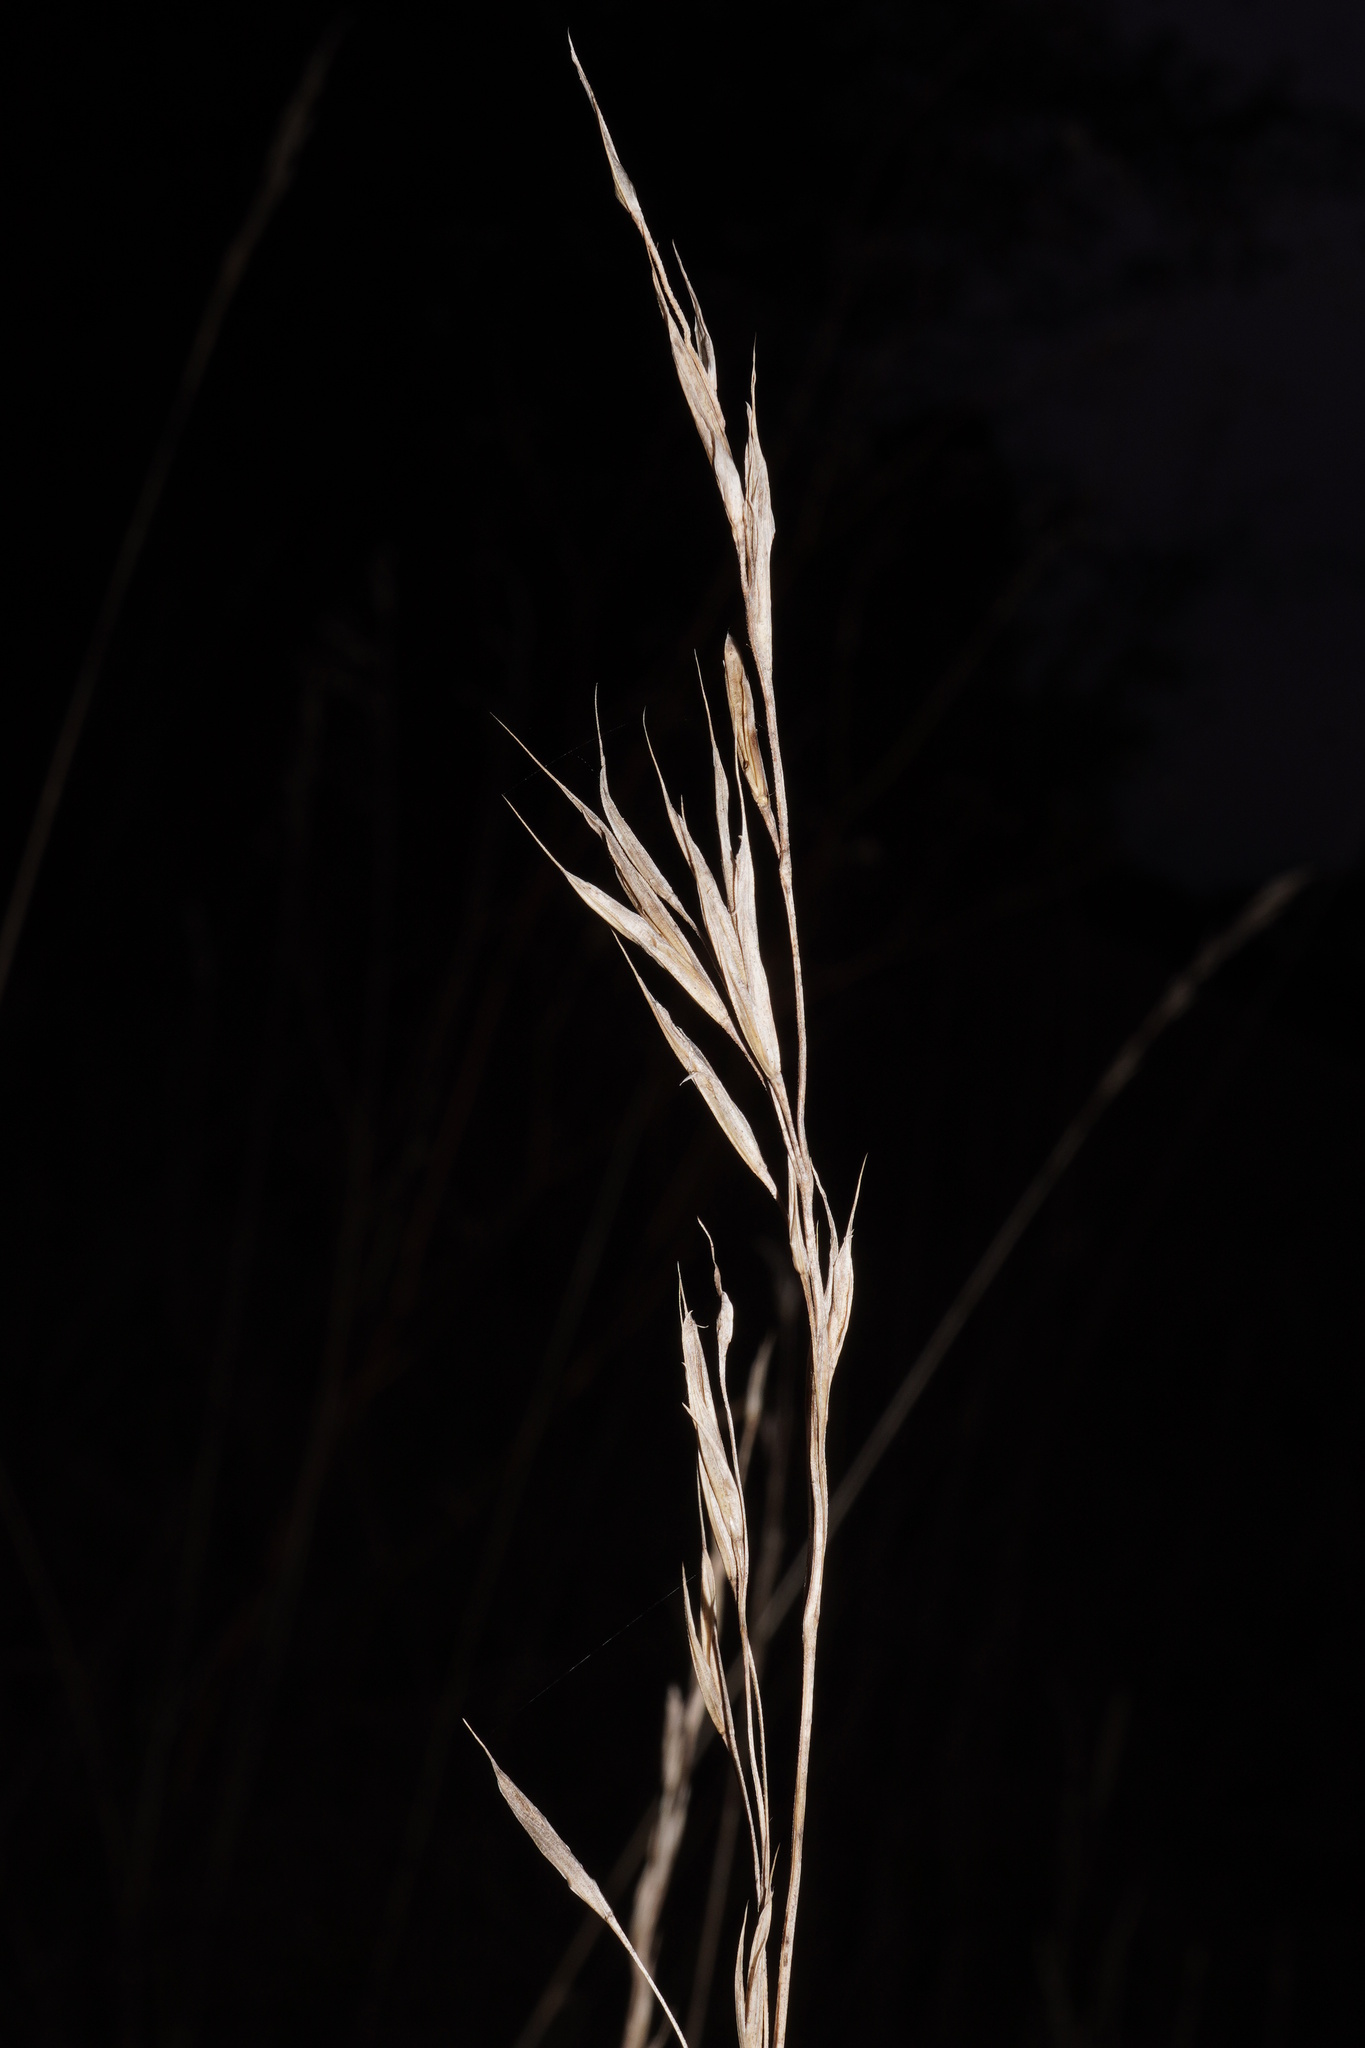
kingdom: Plantae
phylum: Tracheophyta
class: Liliopsida
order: Poales
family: Poaceae
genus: Bromus
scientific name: Bromus erectus
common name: Erect brome
